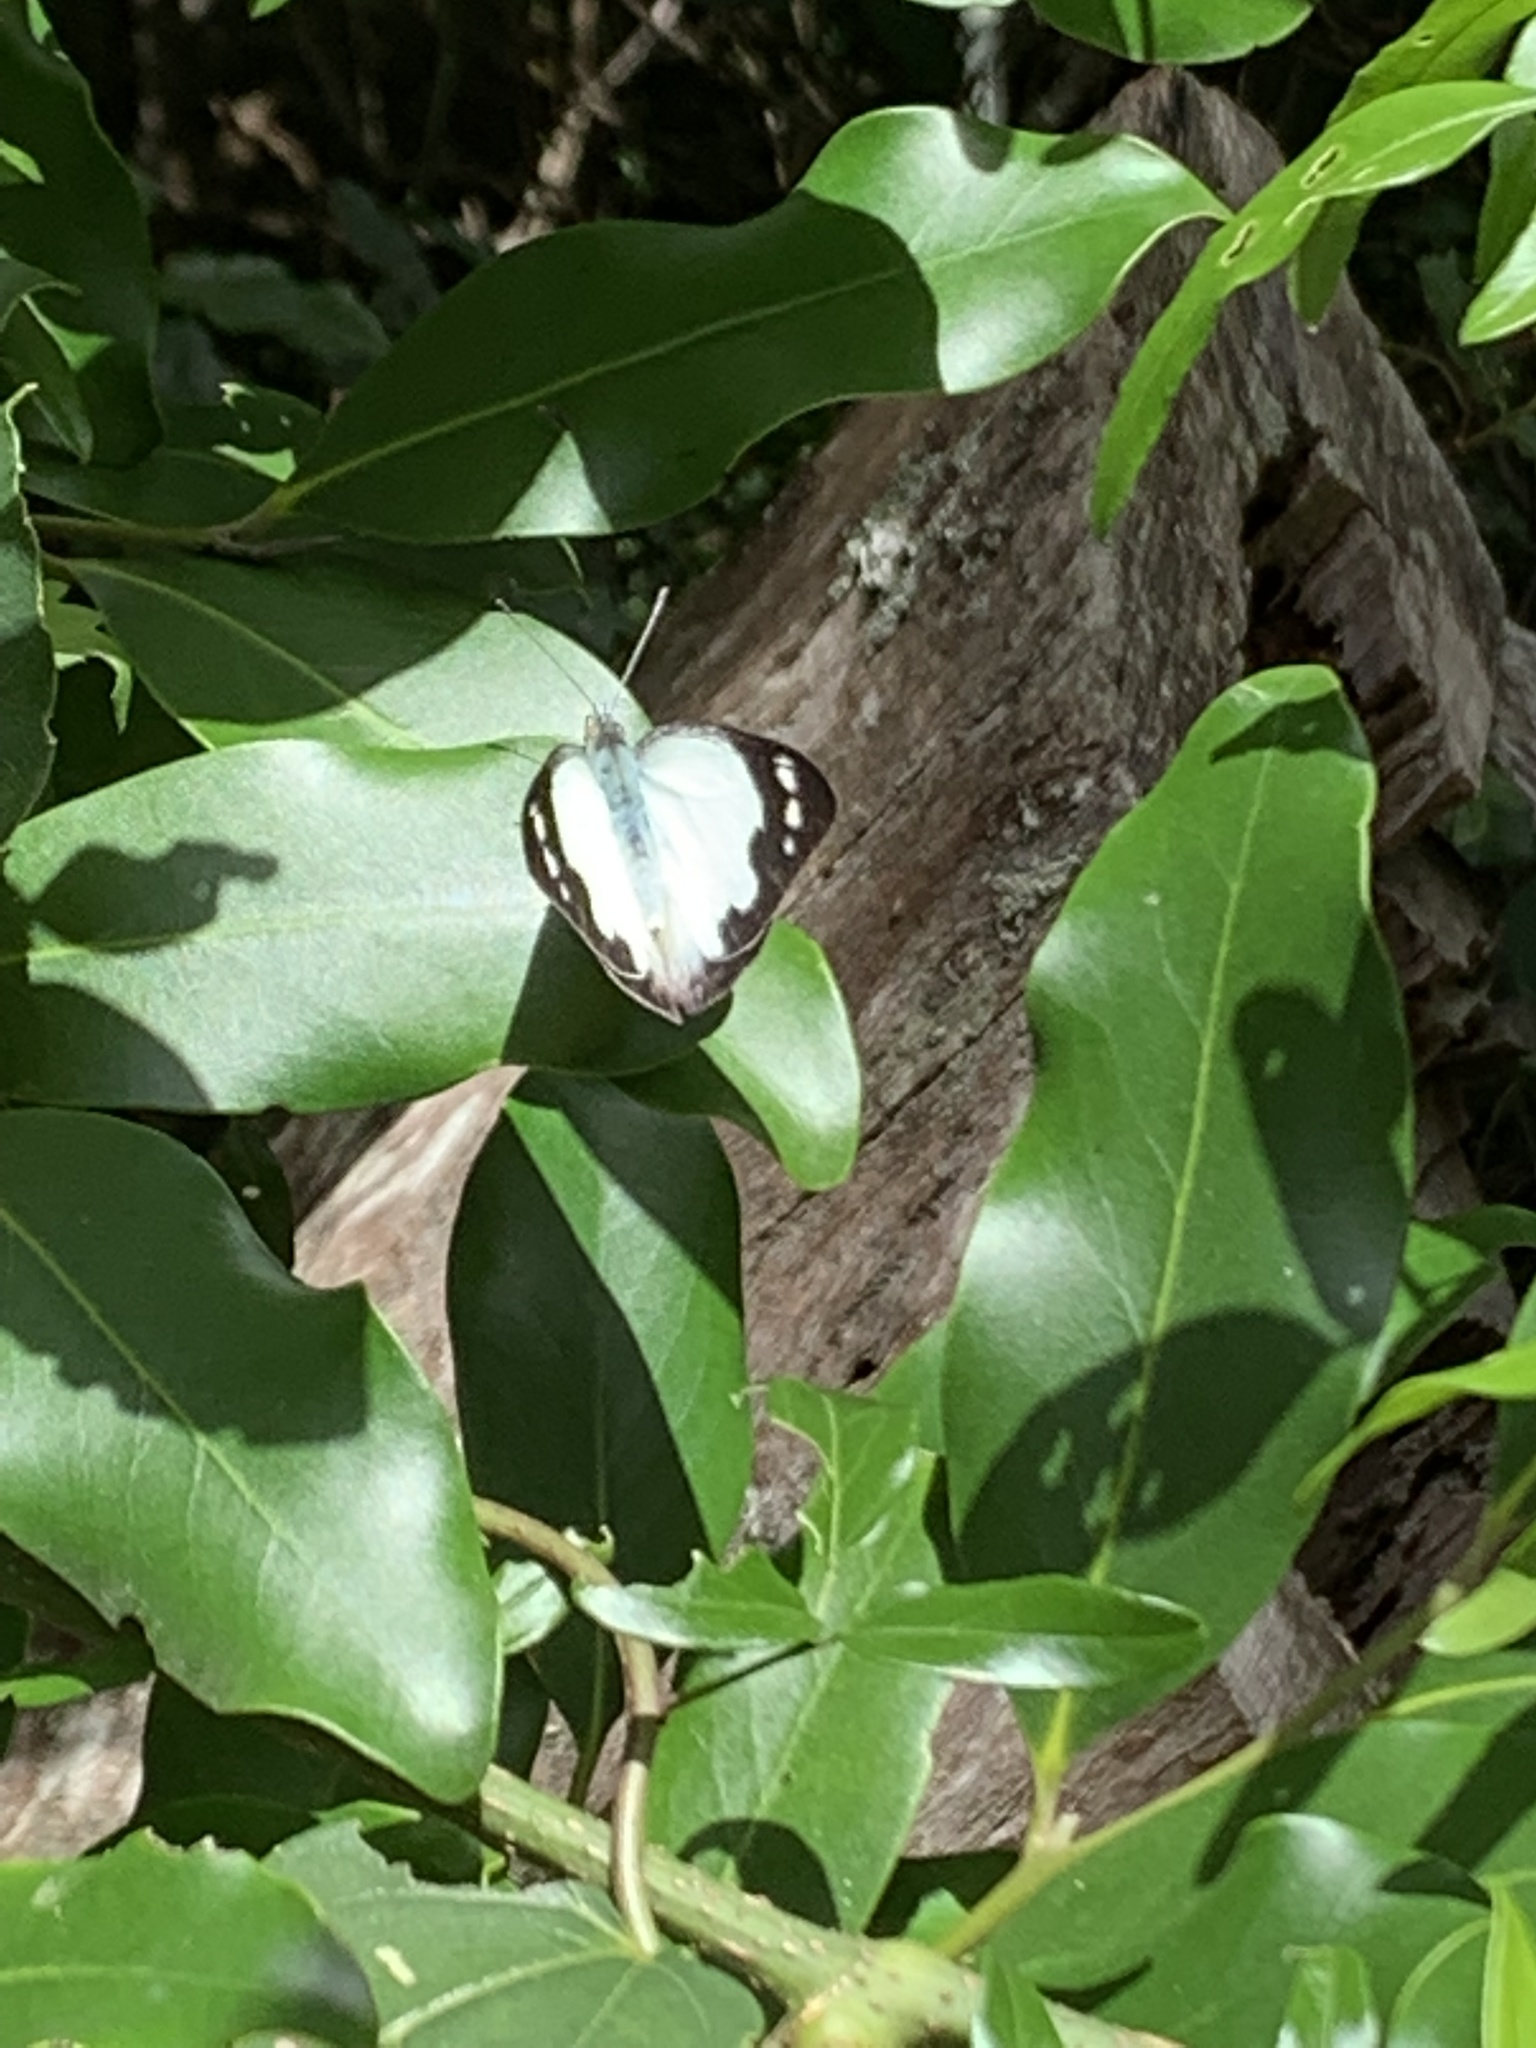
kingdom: Animalia
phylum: Arthropoda
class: Insecta
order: Lepidoptera
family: Pieridae
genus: Appias
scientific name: Appias paulina
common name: Ceylon lesser albatross
